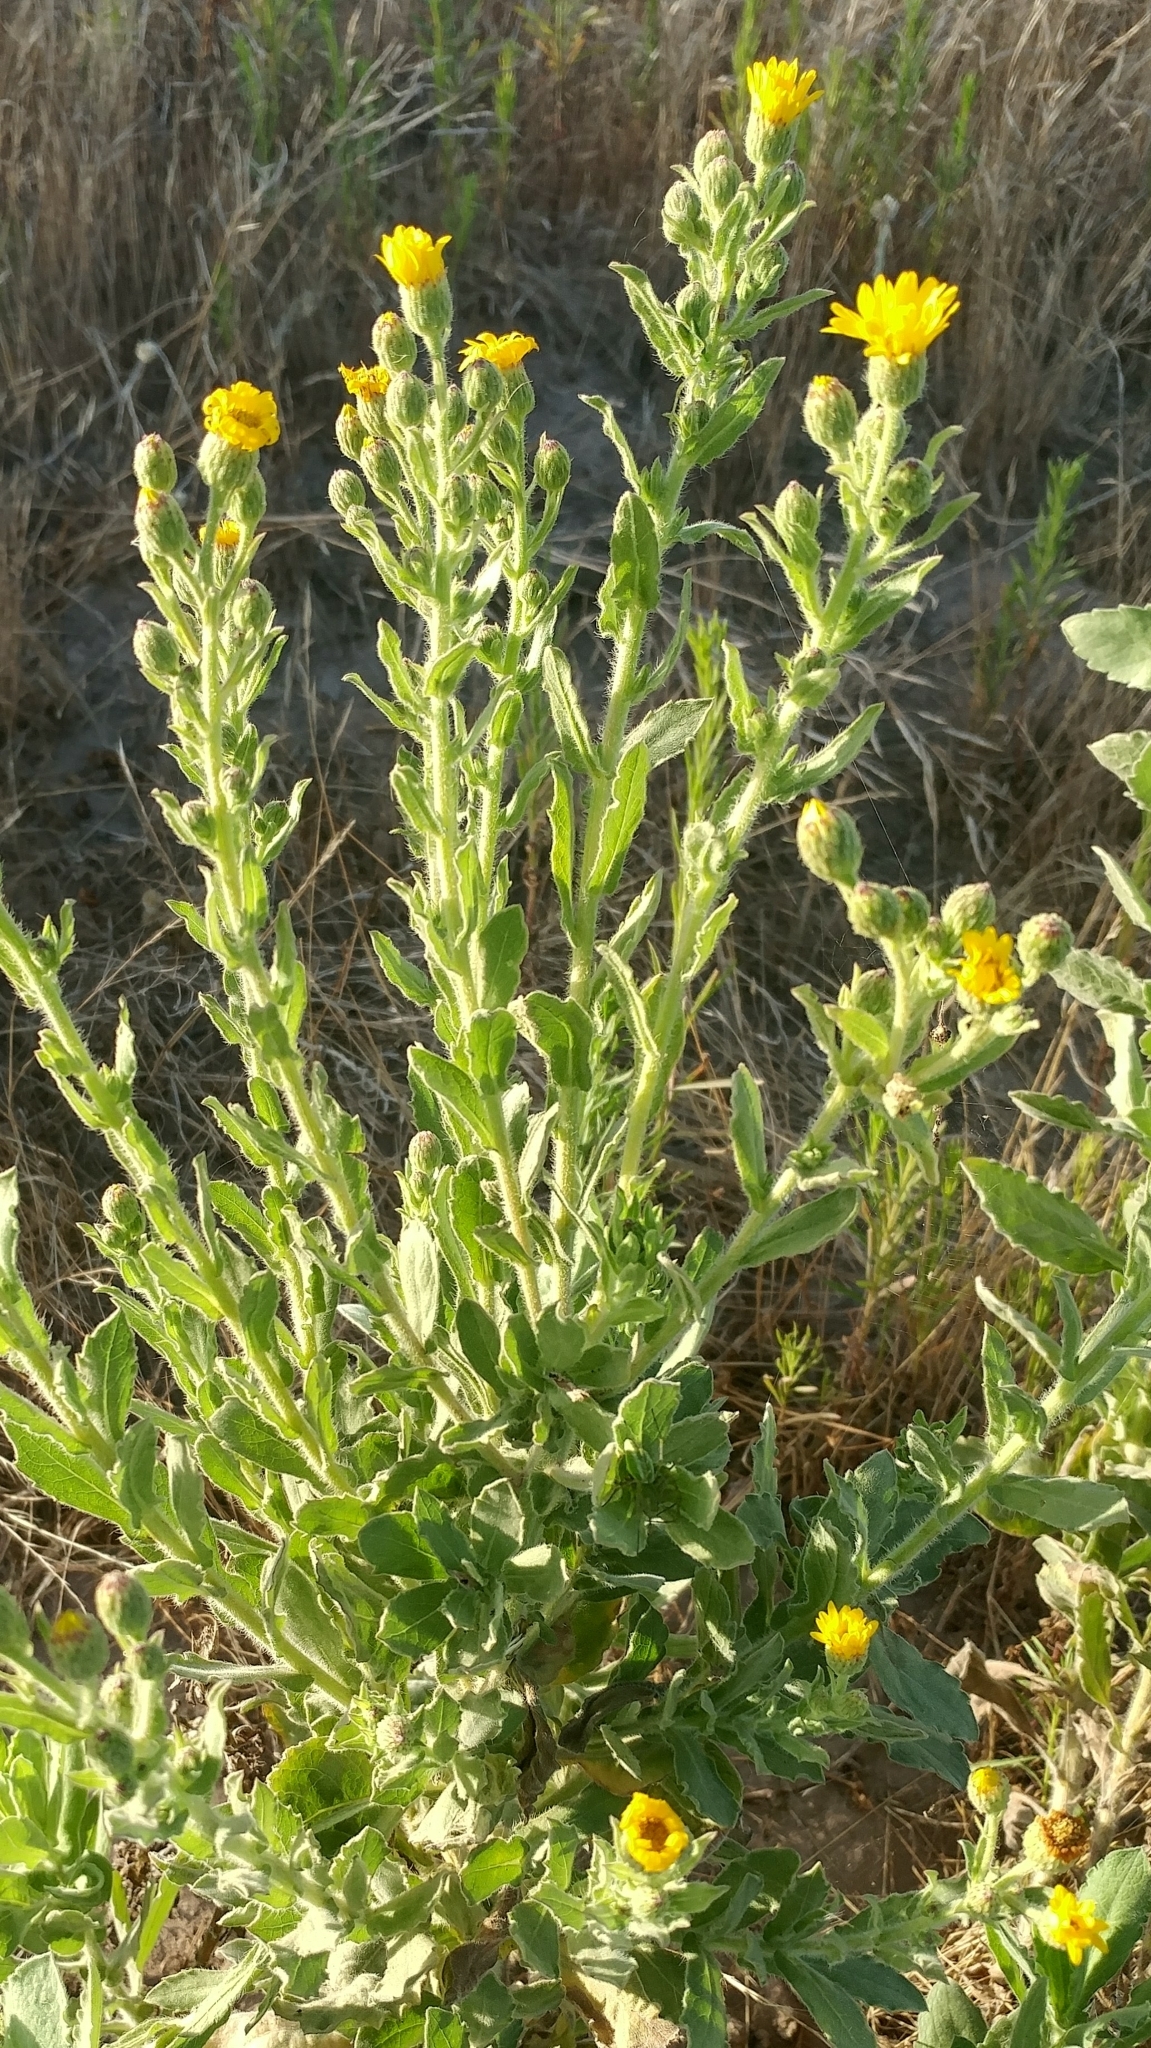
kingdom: Plantae
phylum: Tracheophyta
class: Magnoliopsida
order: Asterales
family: Asteraceae
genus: Heterotheca
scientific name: Heterotheca grandiflora
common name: Telegraphweed
